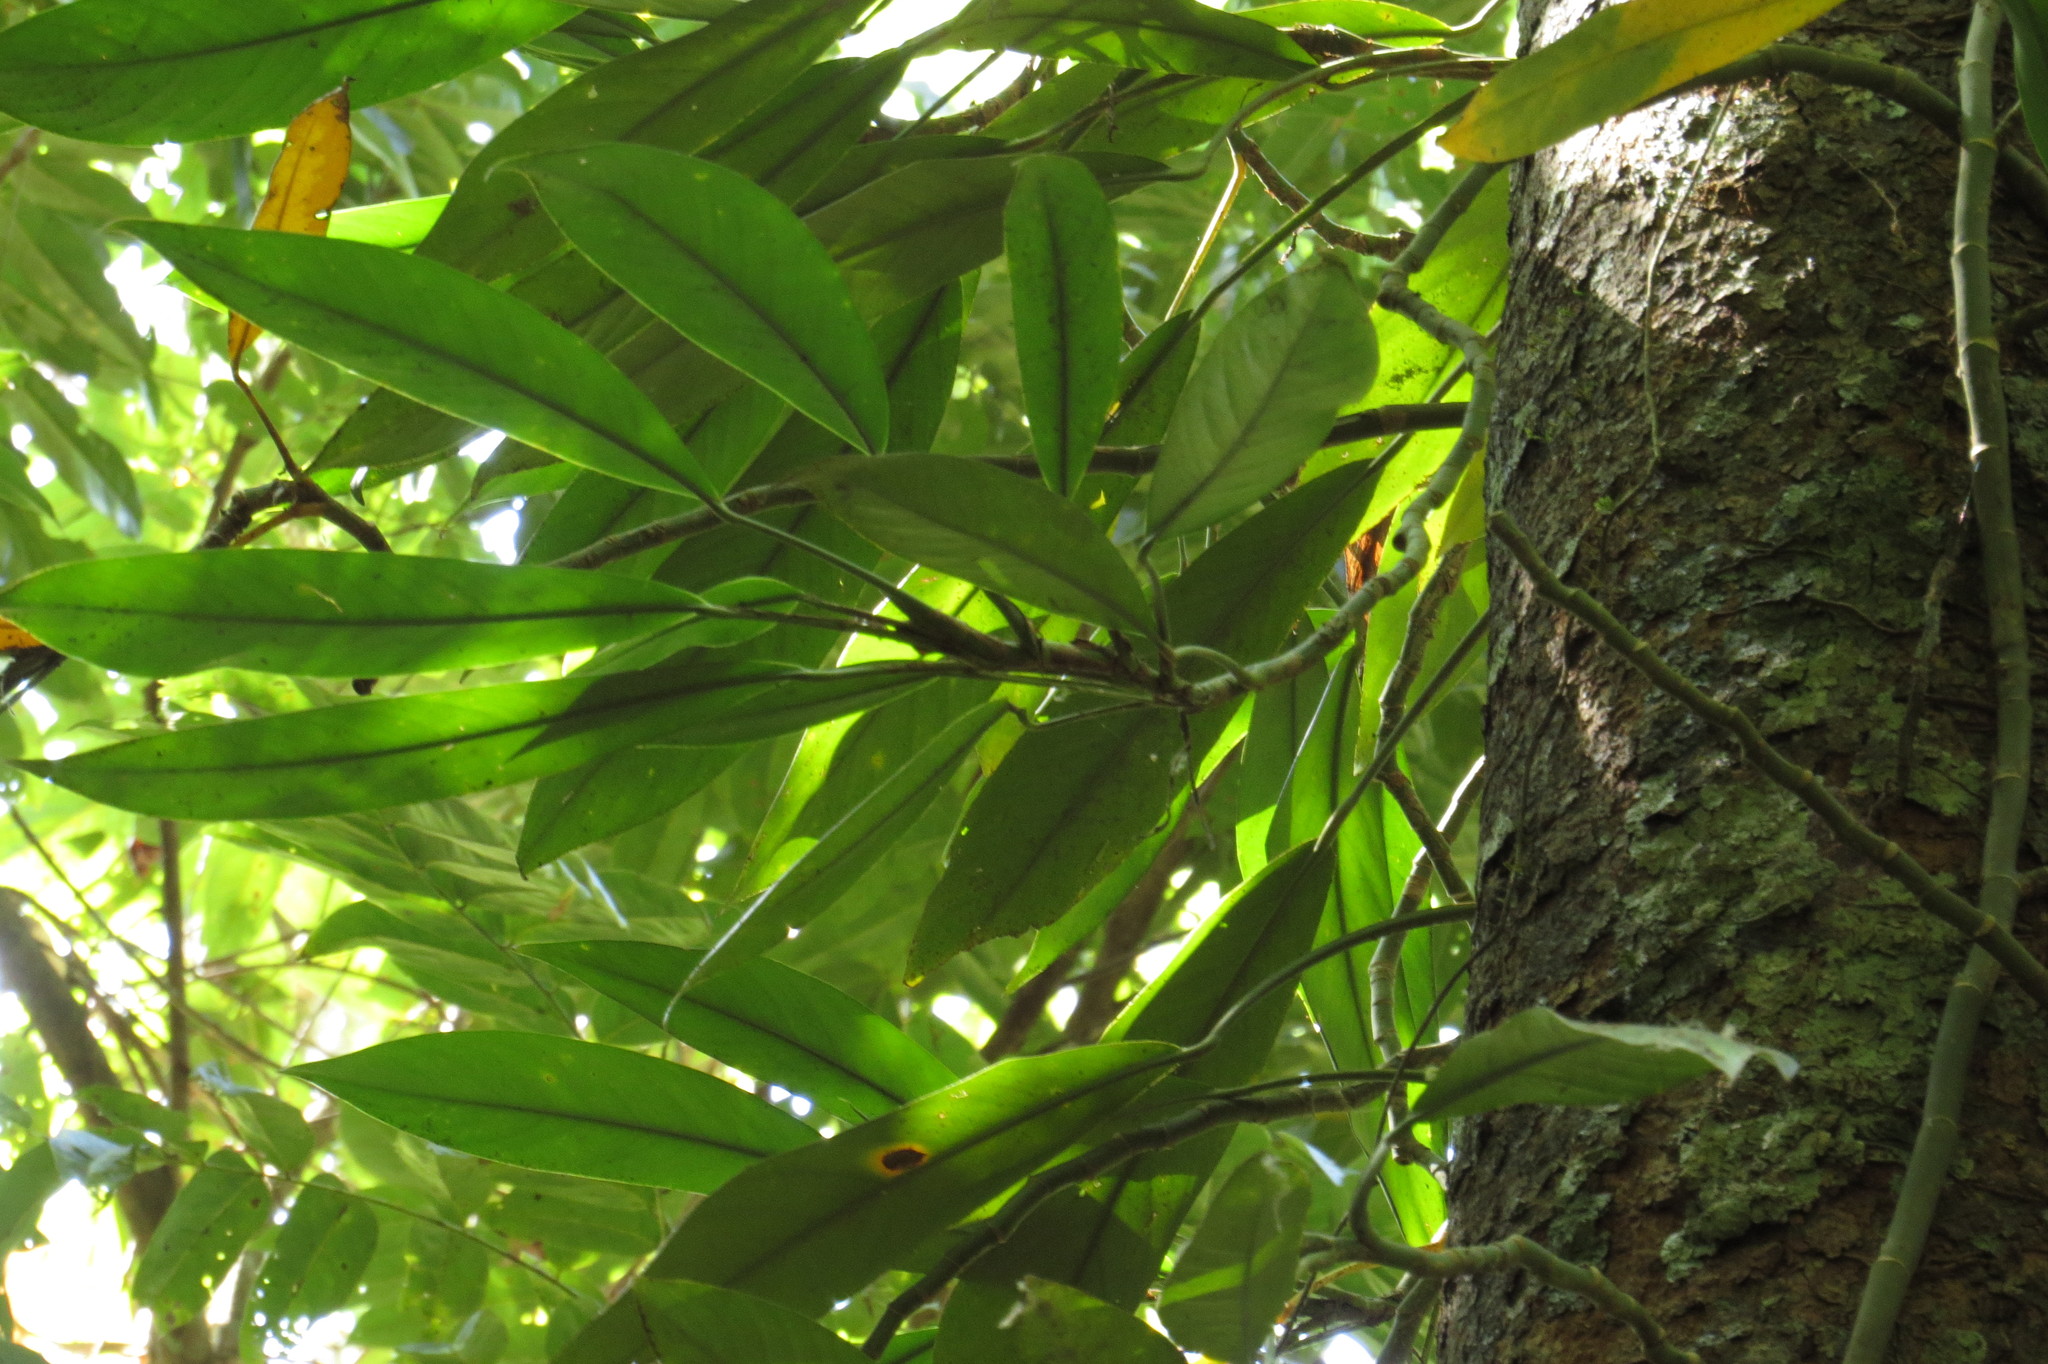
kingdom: Plantae
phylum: Tracheophyta
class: Liliopsida
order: Alismatales
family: Araceae
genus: Rhaphidophora
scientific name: Rhaphidophora petrieana
